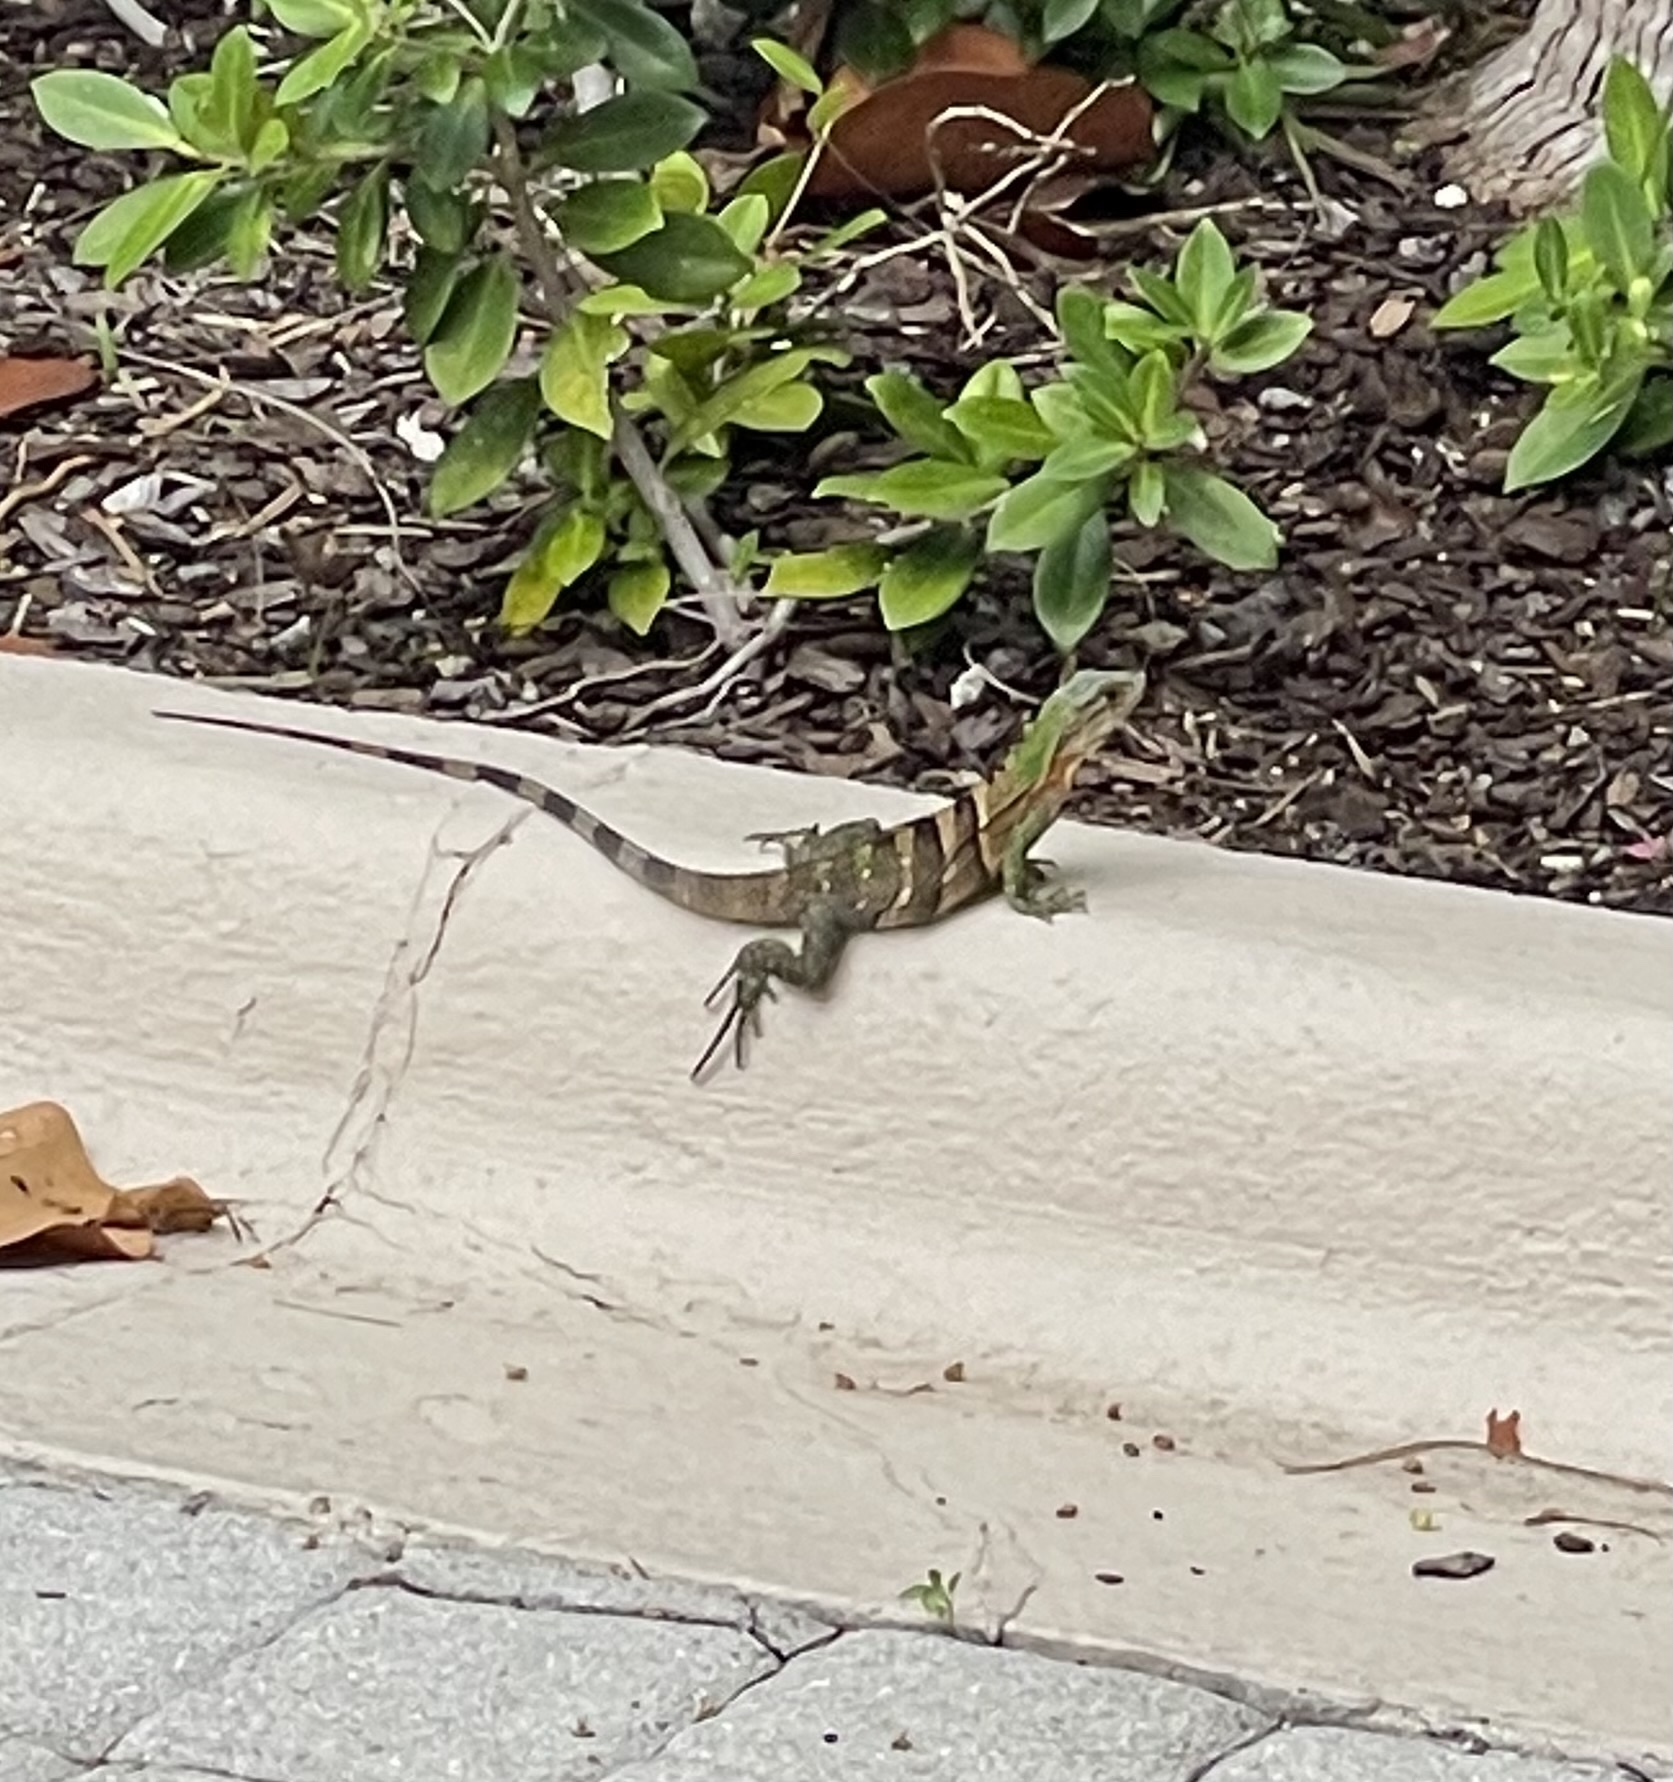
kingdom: Animalia
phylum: Chordata
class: Squamata
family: Iguanidae
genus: Ctenosaura
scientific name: Ctenosaura similis
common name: Black spiny-tailed iguana
